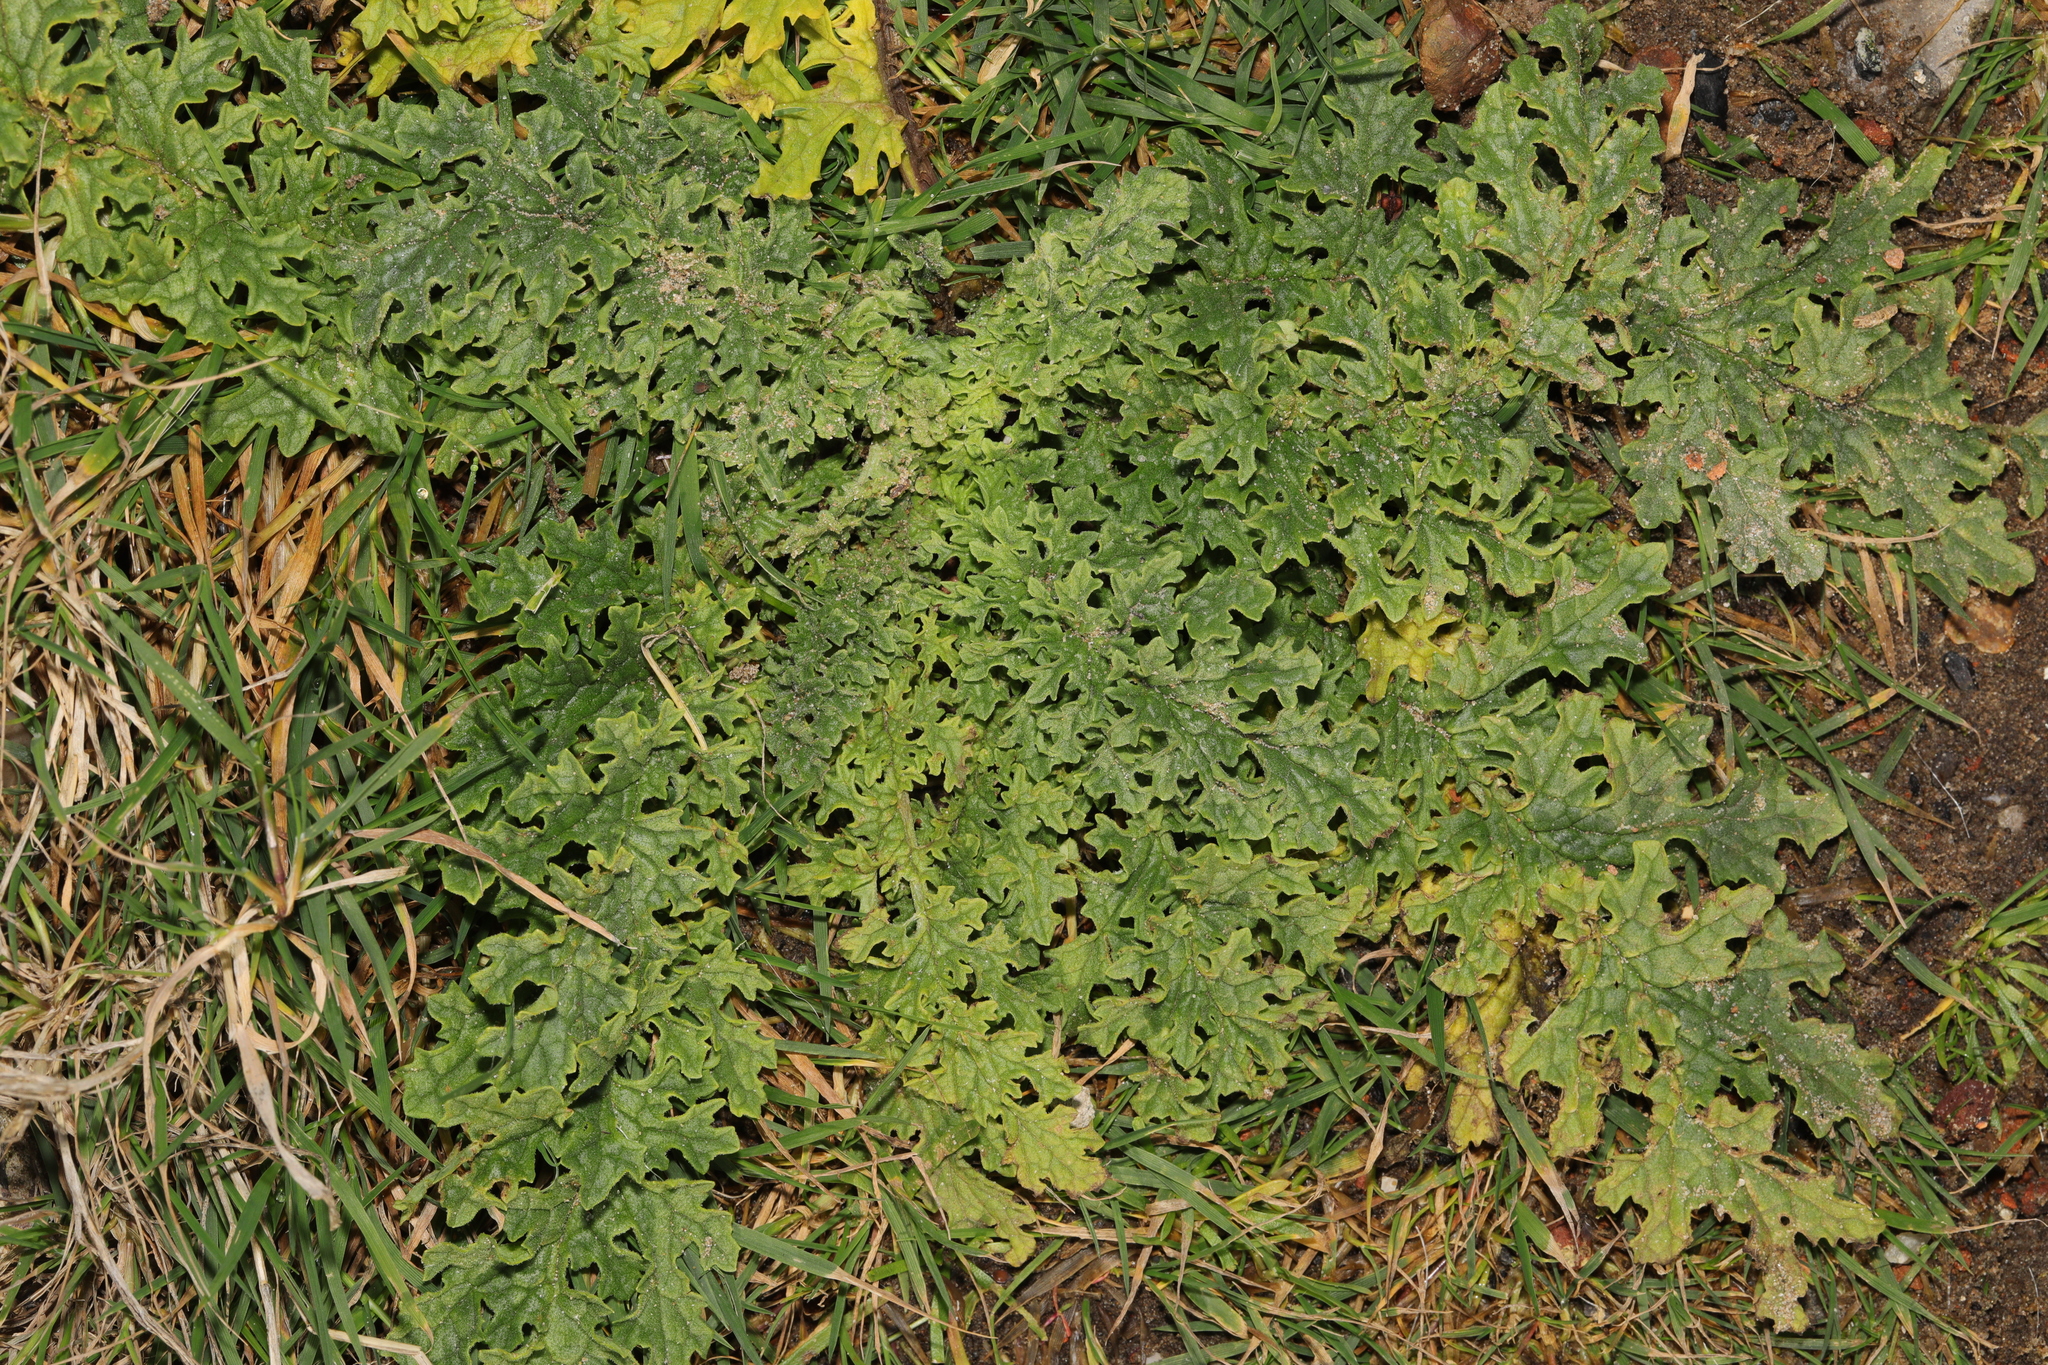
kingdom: Plantae
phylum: Tracheophyta
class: Magnoliopsida
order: Asterales
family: Asteraceae
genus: Jacobaea
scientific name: Jacobaea vulgaris
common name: Stinking willie
